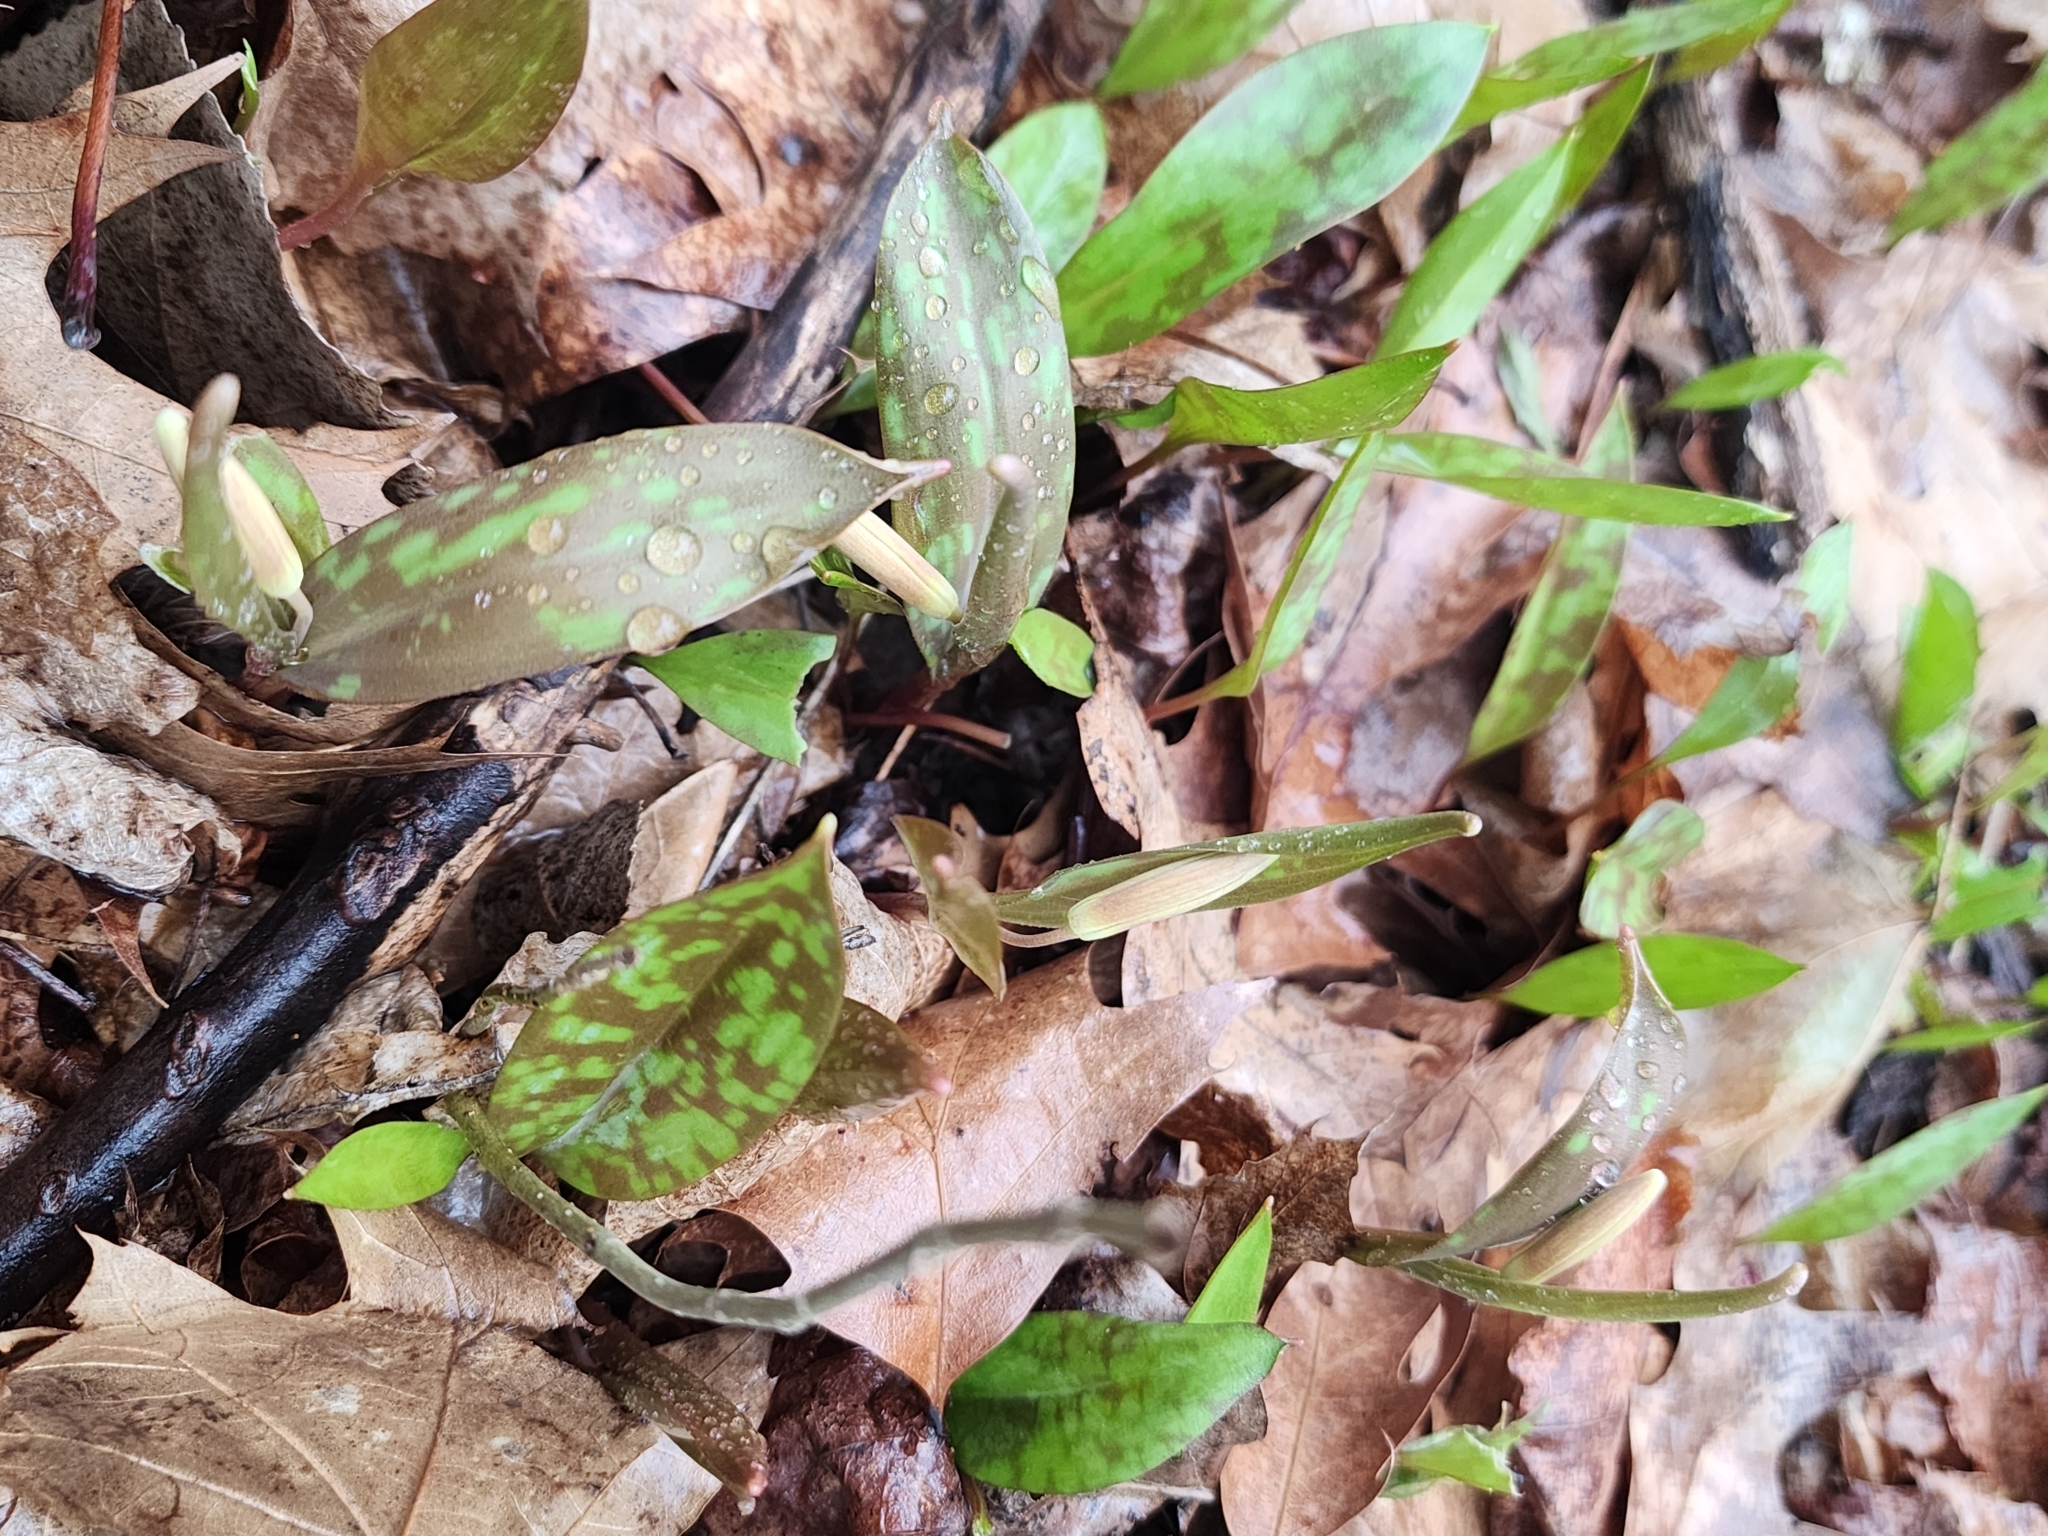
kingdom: Plantae
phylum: Tracheophyta
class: Liliopsida
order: Liliales
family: Liliaceae
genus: Erythronium
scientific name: Erythronium americanum
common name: Yellow adder's-tongue
